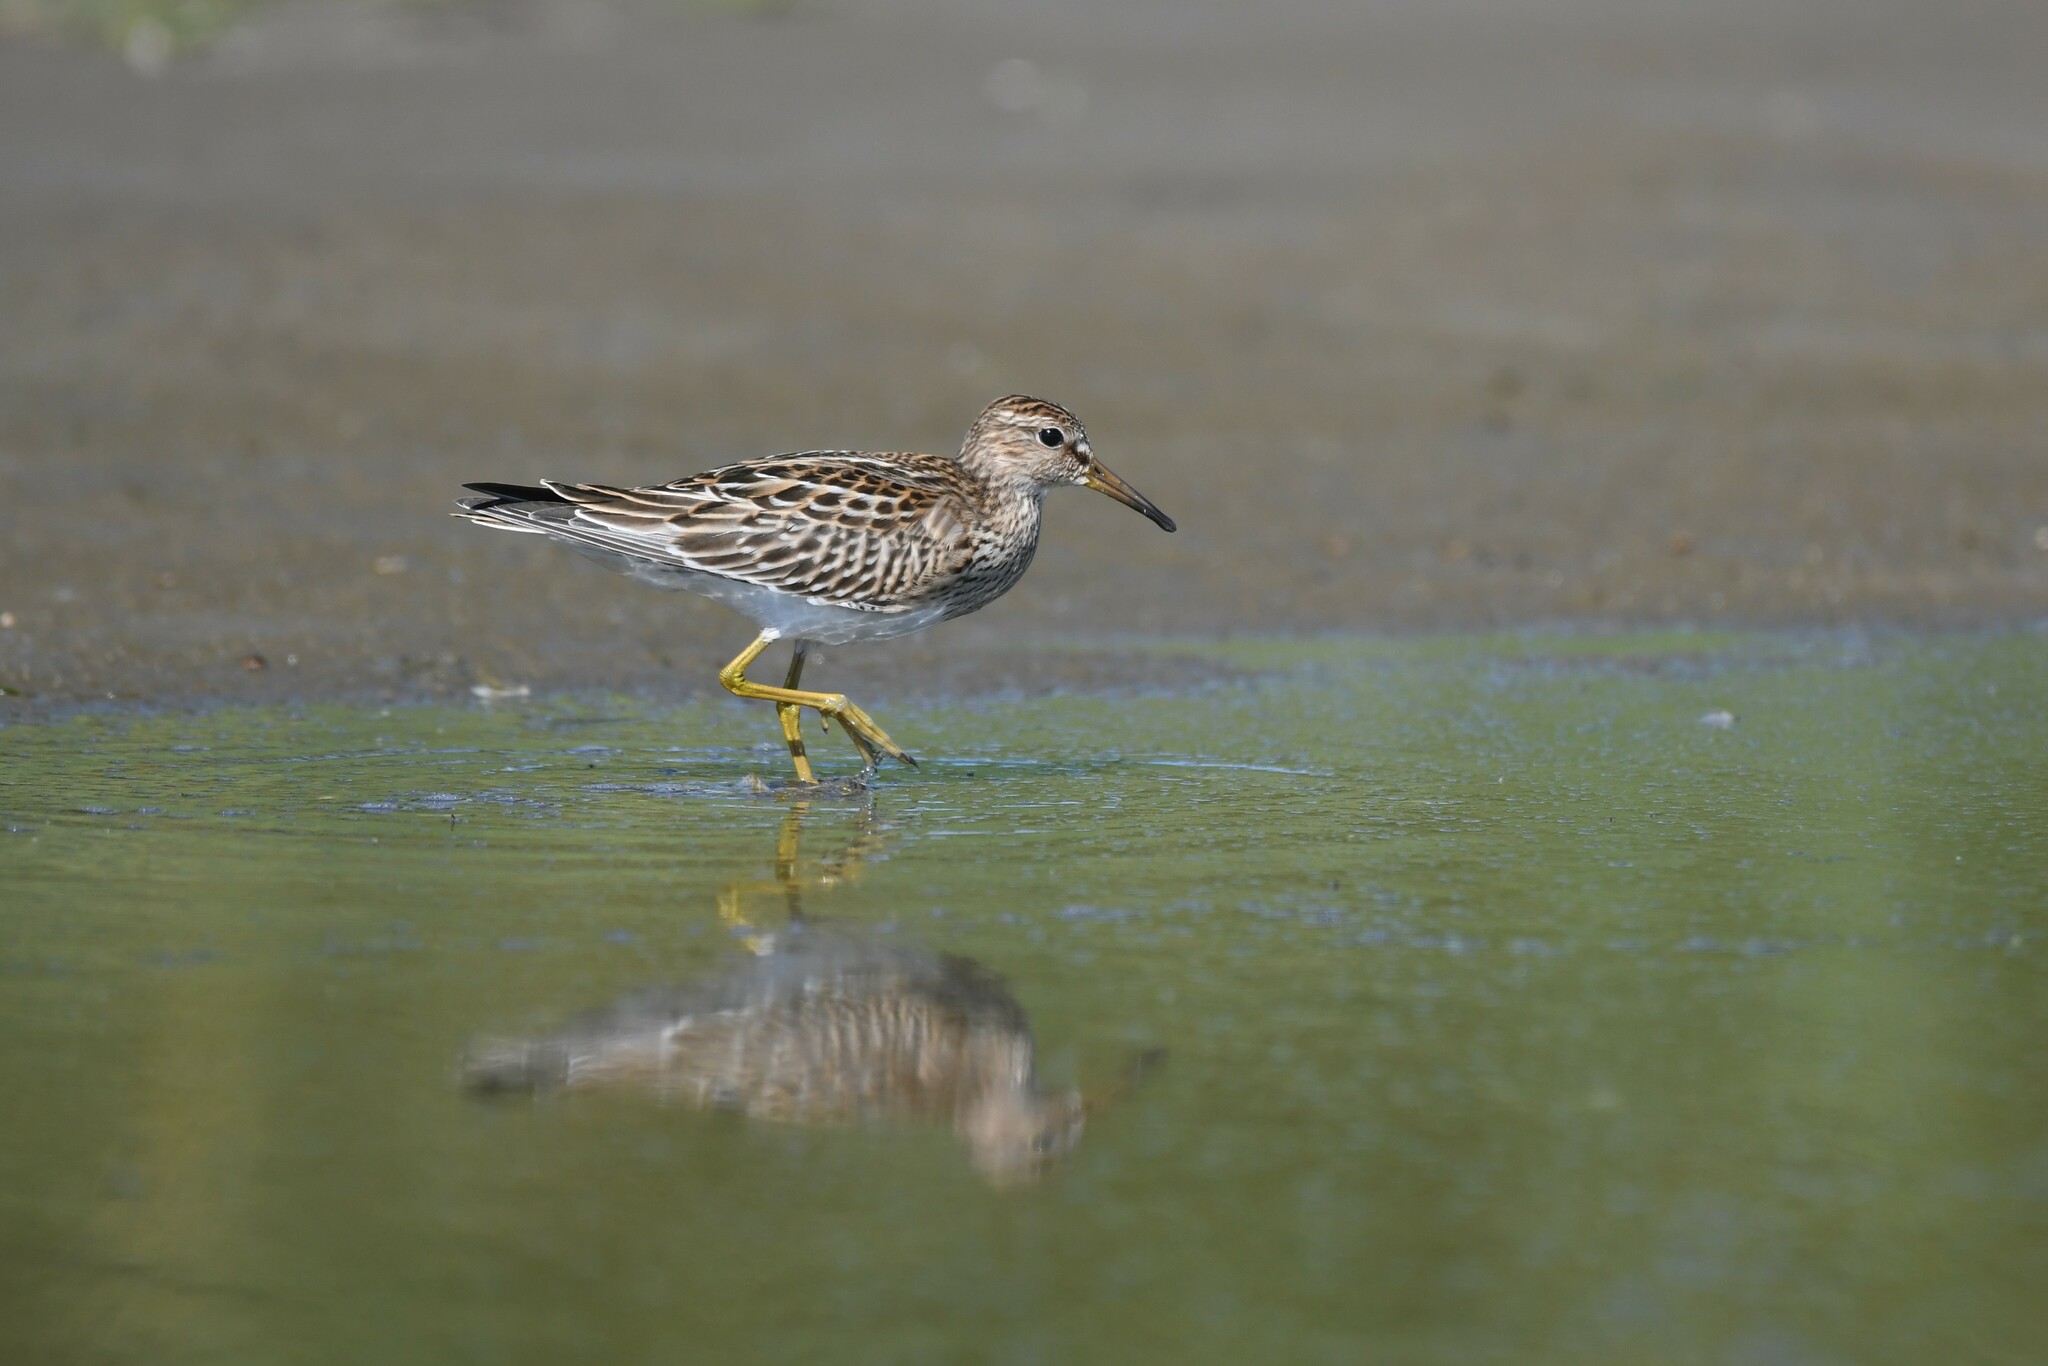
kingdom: Animalia
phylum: Chordata
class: Aves
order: Charadriiformes
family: Scolopacidae
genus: Calidris
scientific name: Calidris melanotos
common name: Pectoral sandpiper
